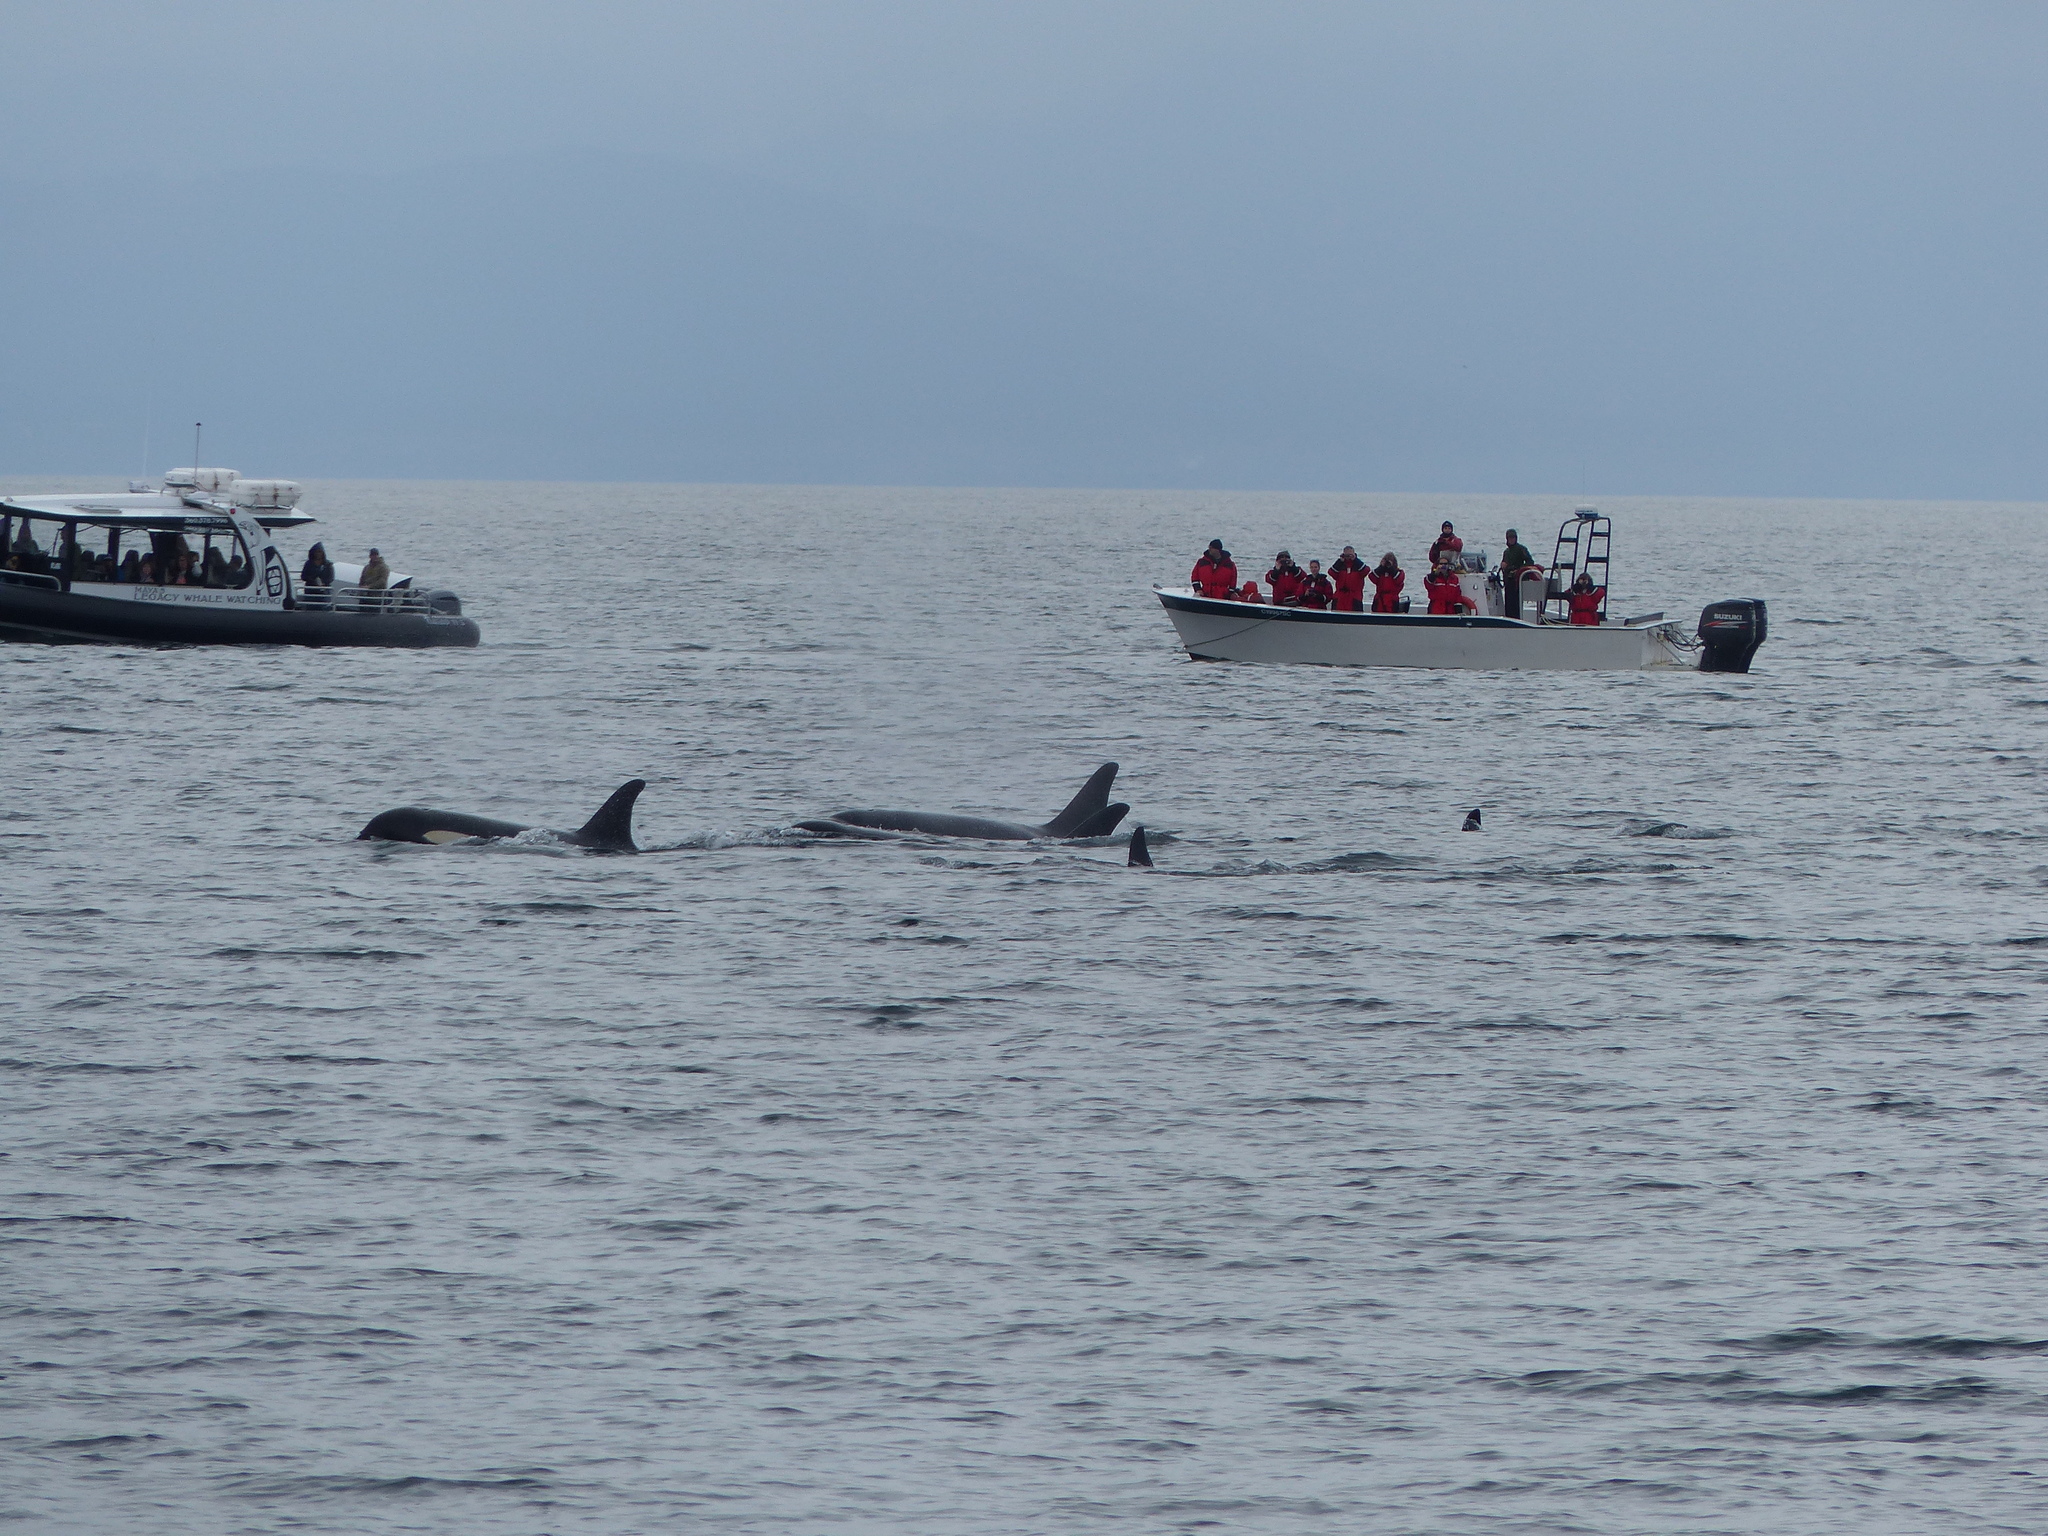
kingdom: Animalia
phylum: Chordata
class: Mammalia
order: Cetacea
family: Delphinidae
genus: Orcinus
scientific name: Orcinus orca
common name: Killer whale
